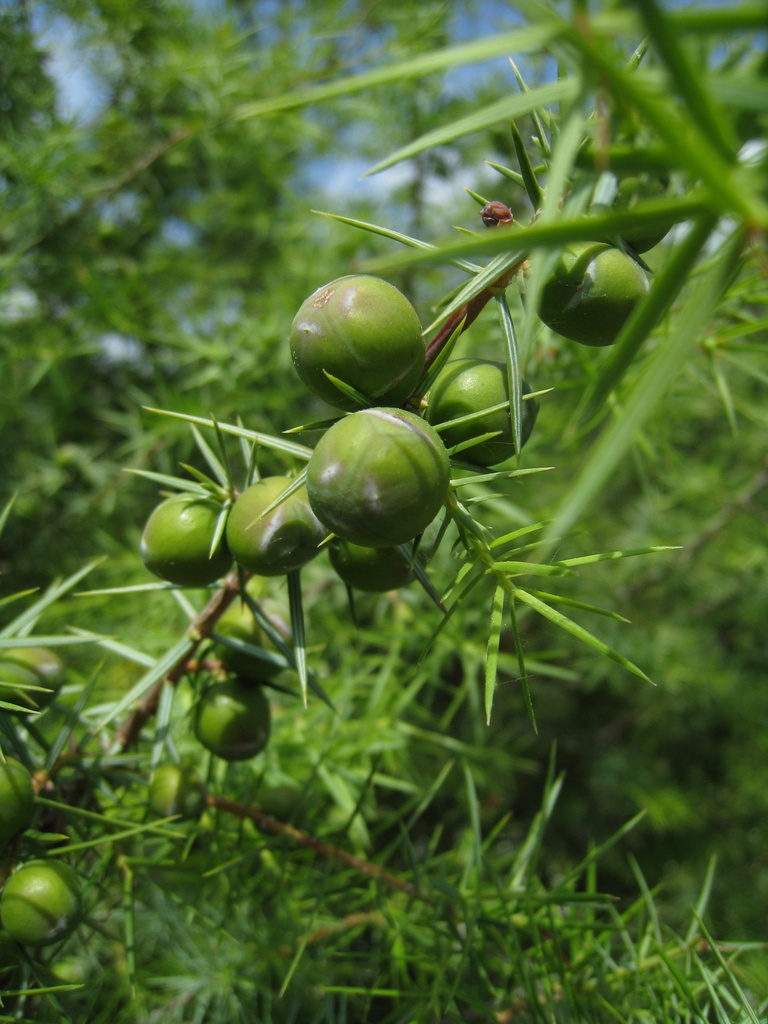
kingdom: Plantae
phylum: Tracheophyta
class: Pinopsida
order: Pinales
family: Cupressaceae
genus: Juniperus
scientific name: Juniperus oxycedrus
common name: Prickly juniper
